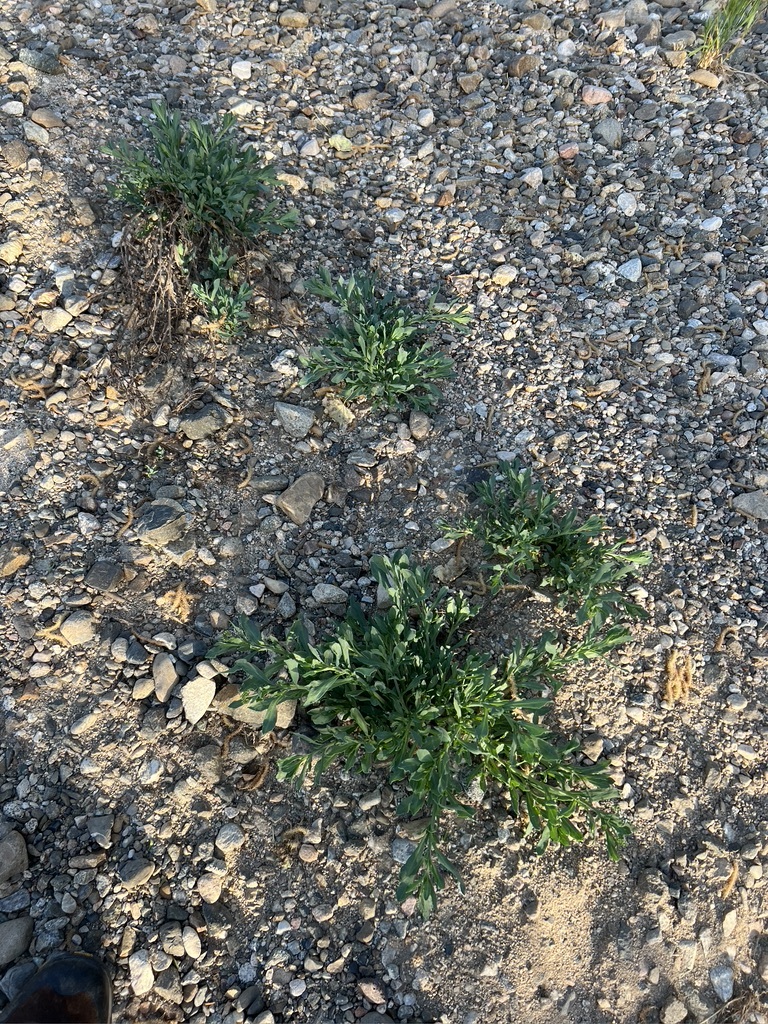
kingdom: Plantae
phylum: Tracheophyta
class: Magnoliopsida
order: Boraginales
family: Heliotropiaceae
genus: Heliotropium
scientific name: Heliotropium curassavicum
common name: Seaside heliotrope
